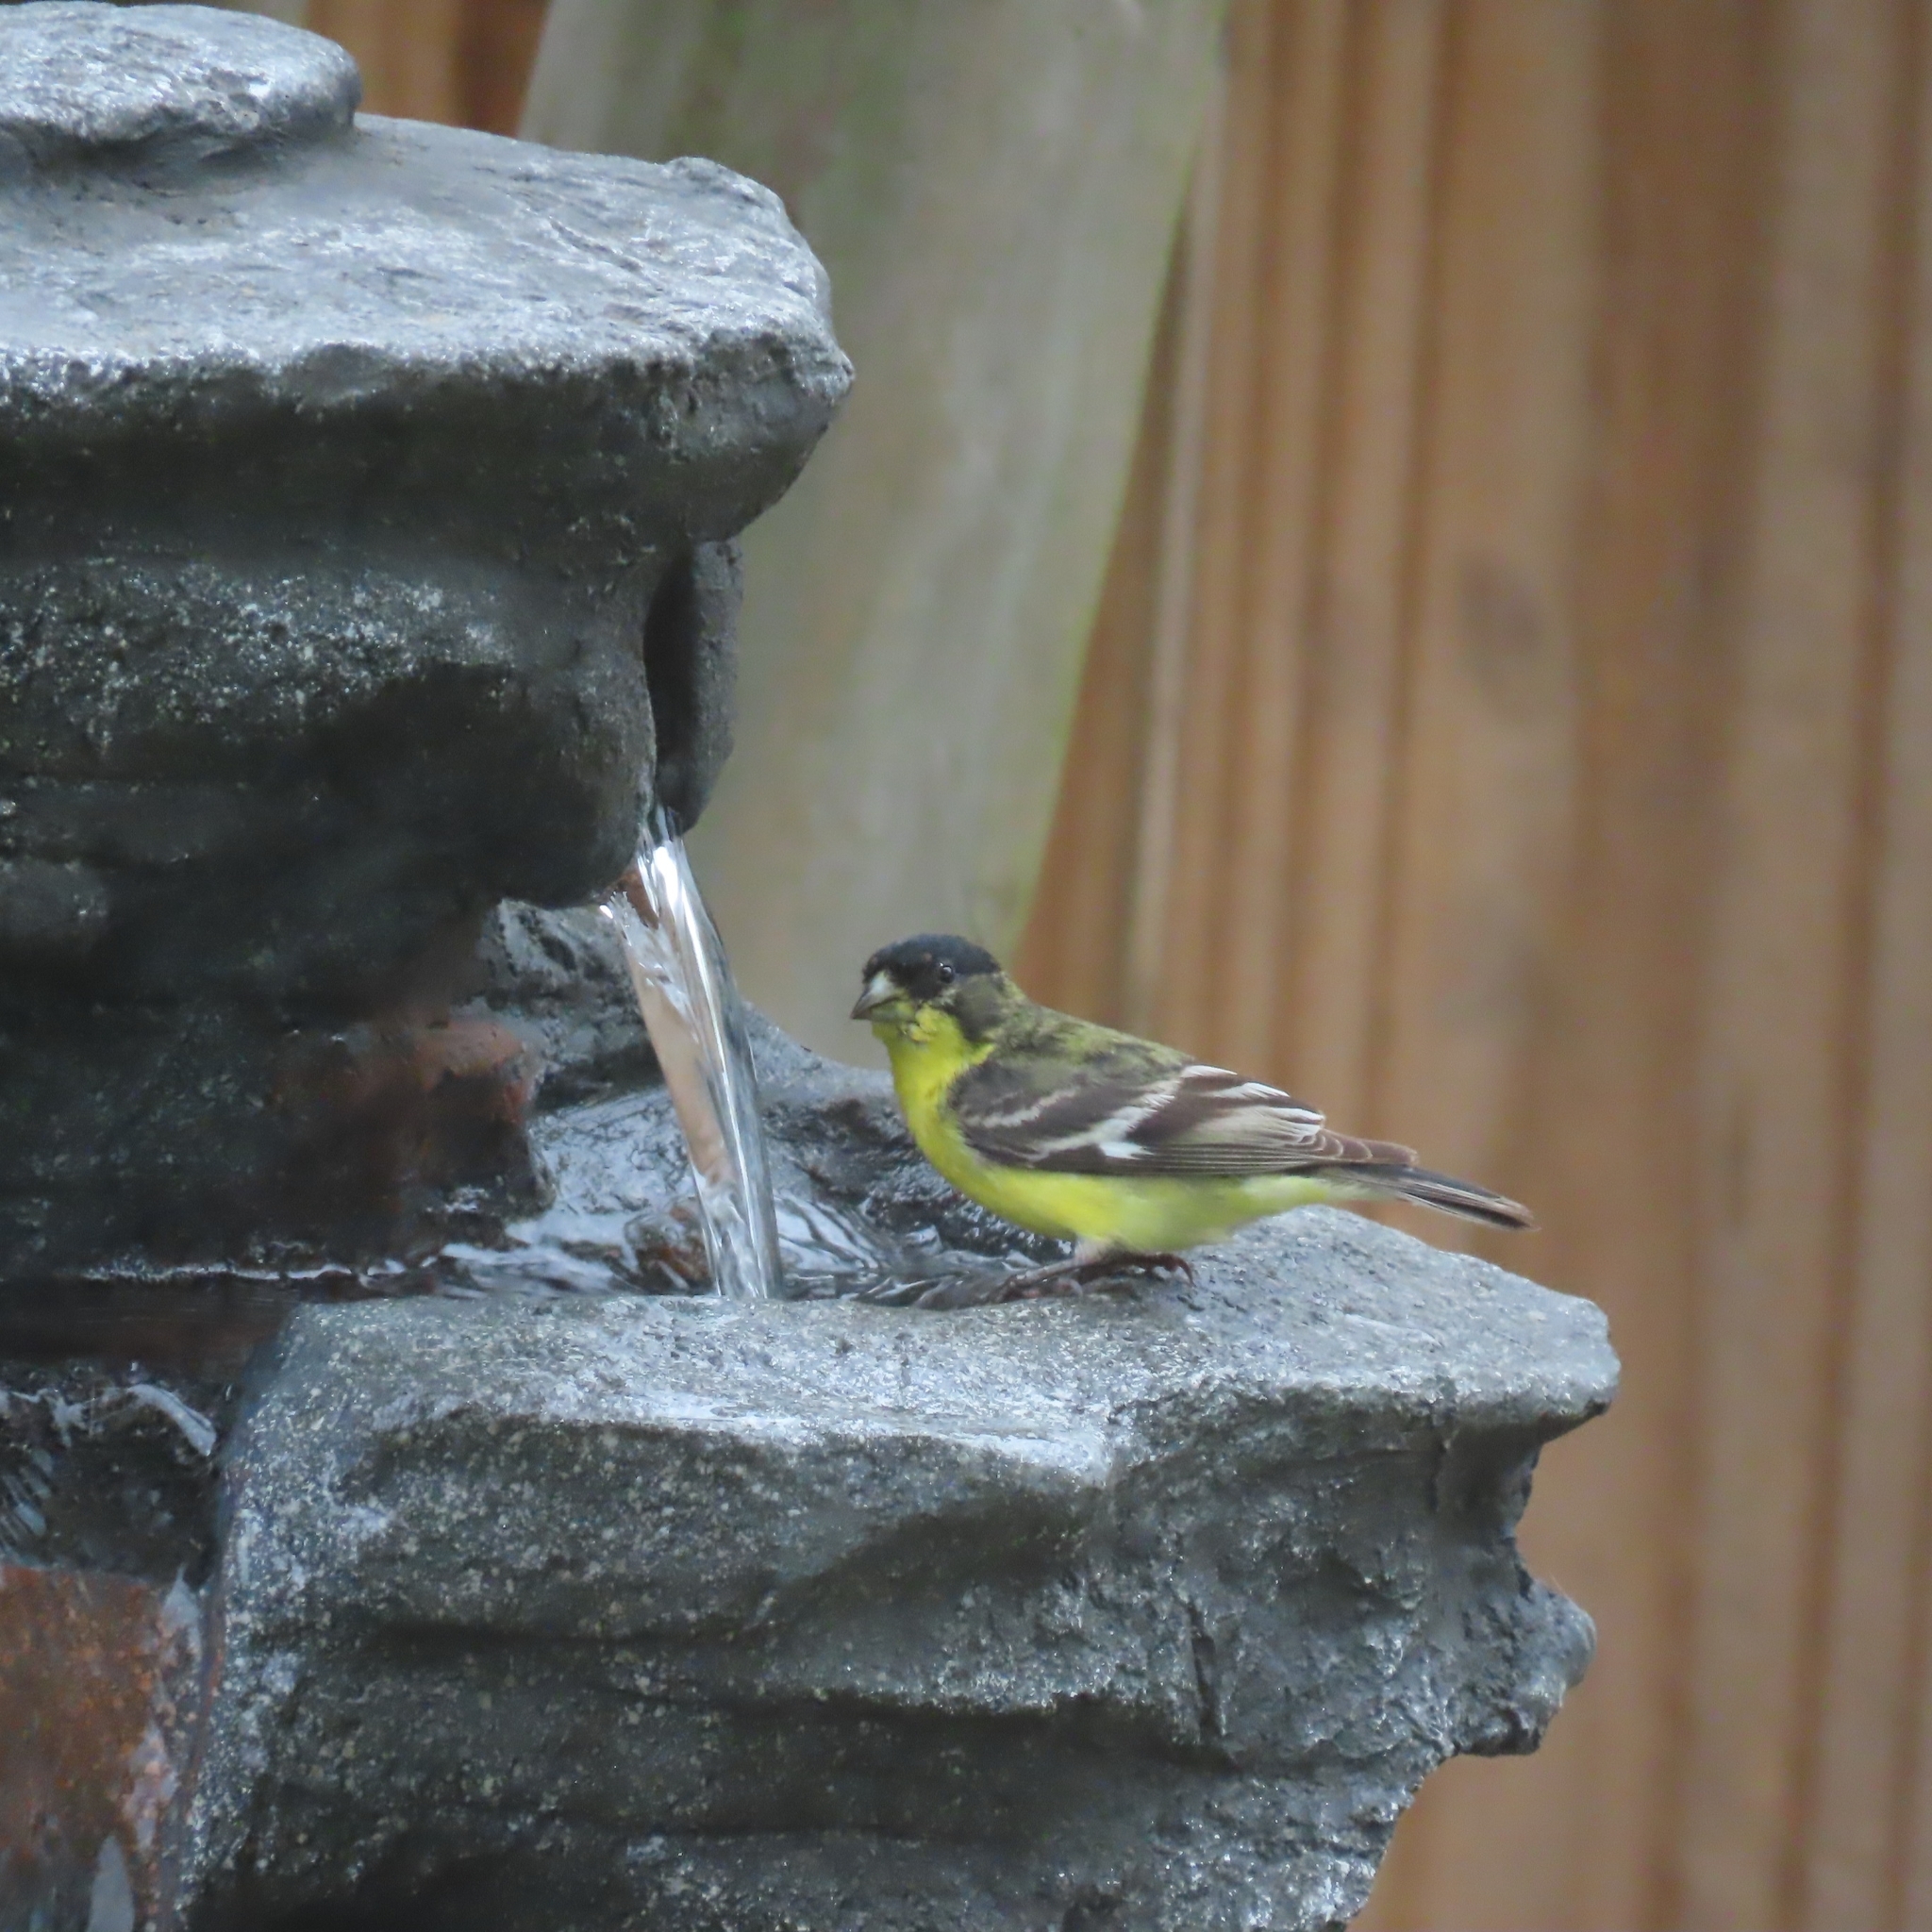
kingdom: Animalia
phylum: Chordata
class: Aves
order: Passeriformes
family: Fringillidae
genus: Spinus
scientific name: Spinus psaltria
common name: Lesser goldfinch
